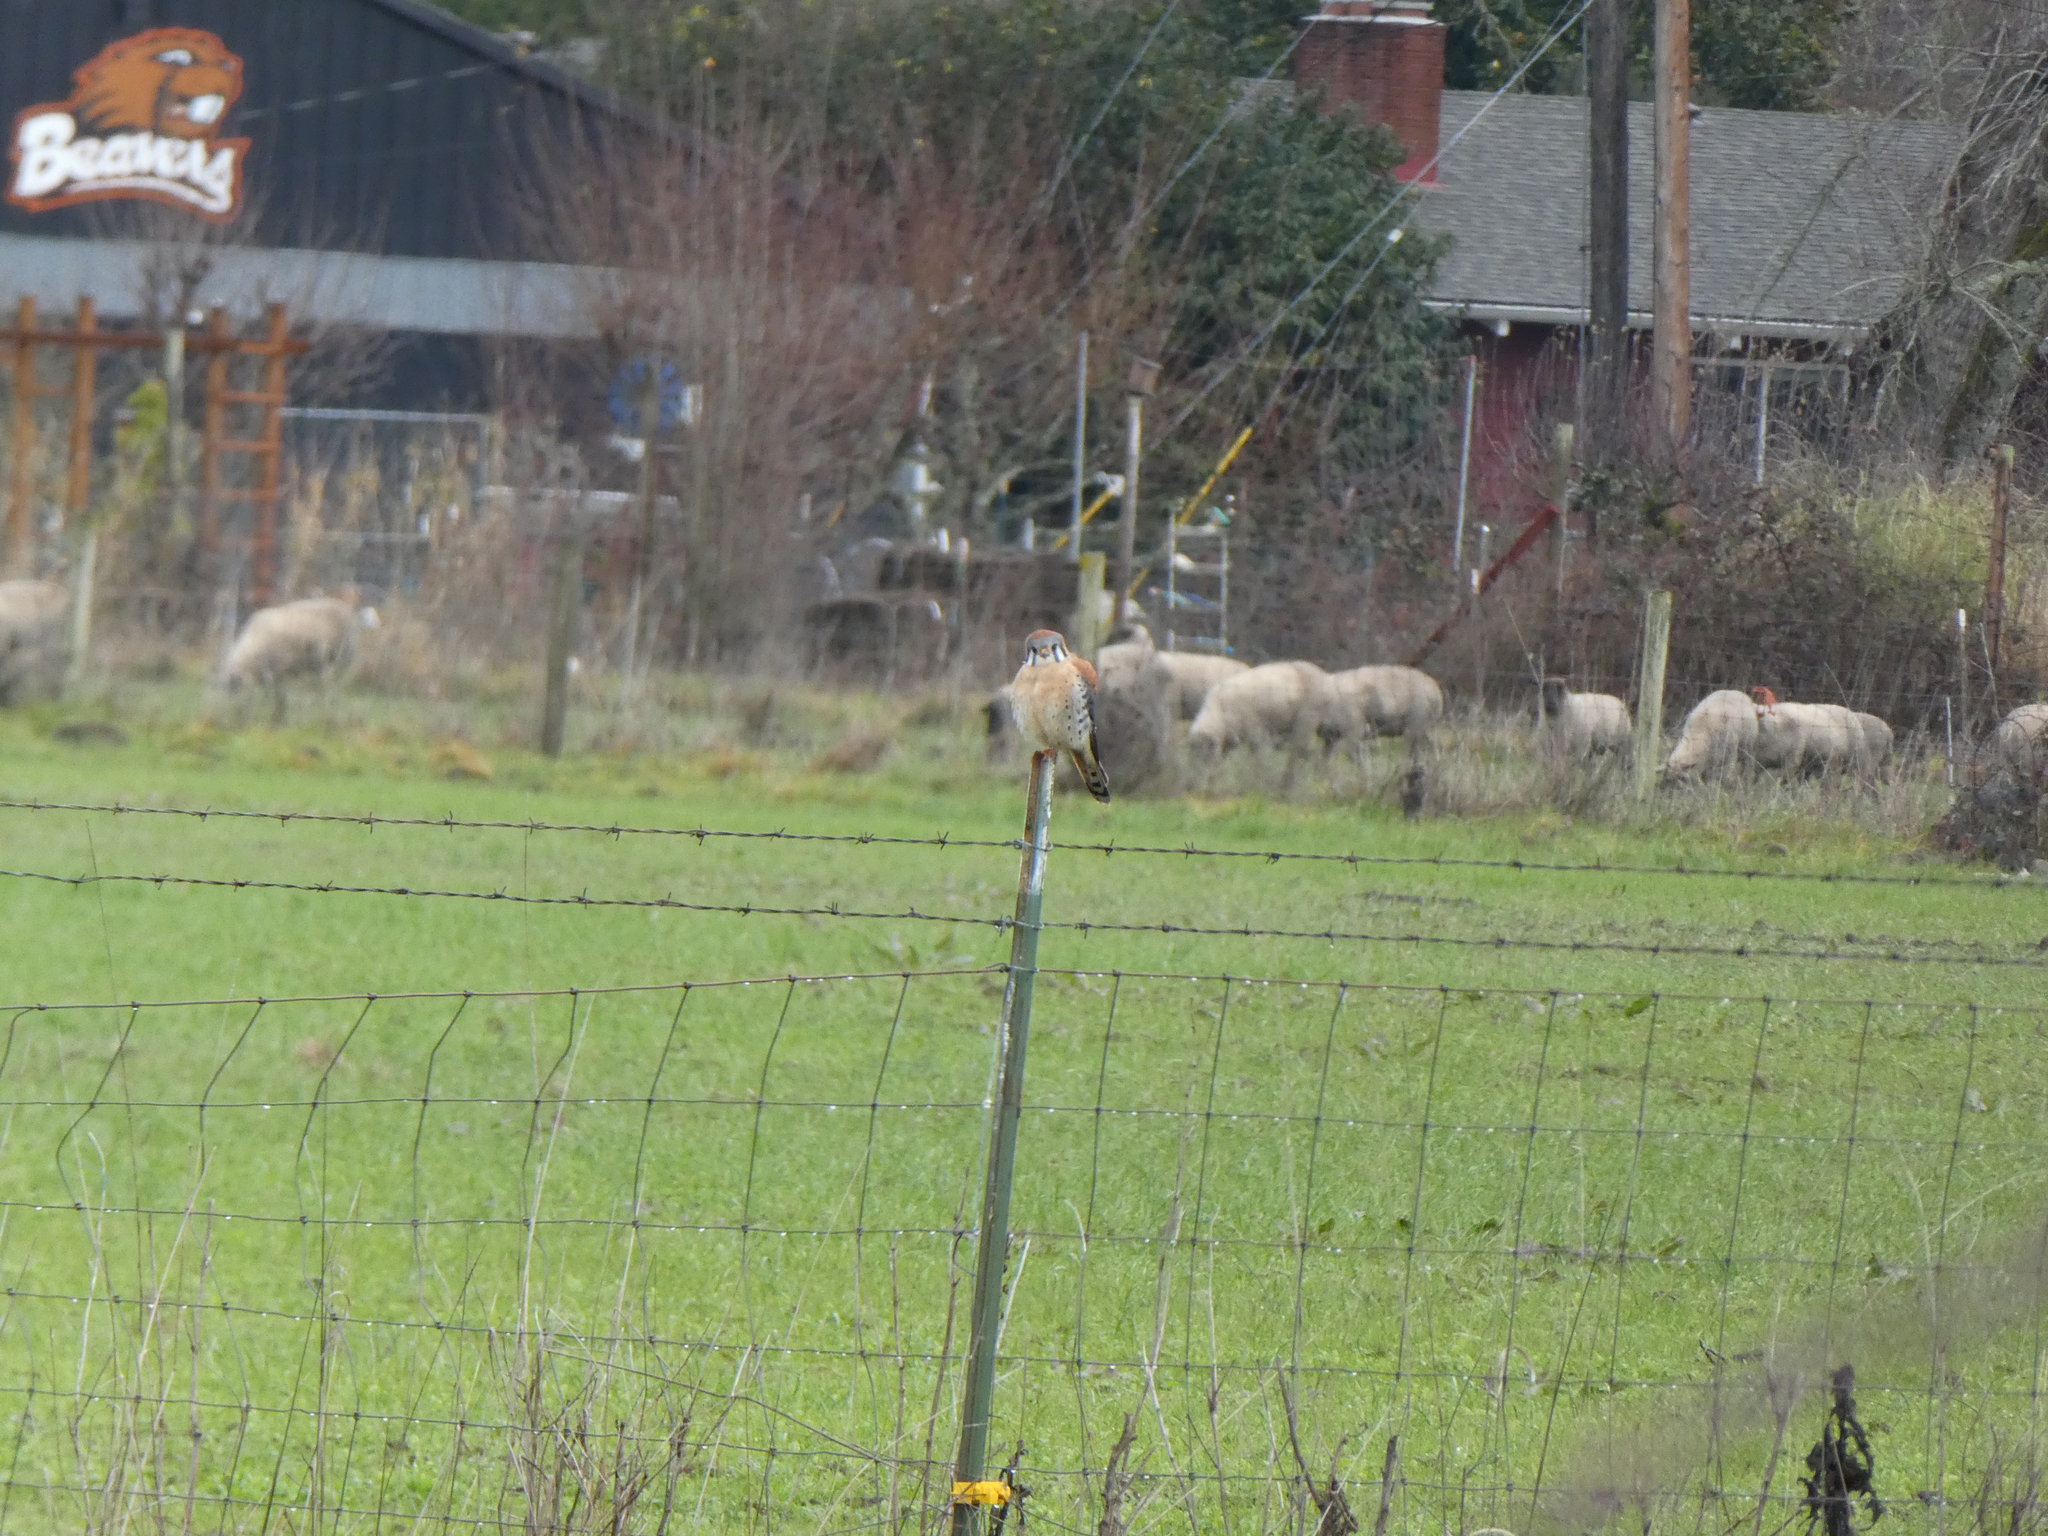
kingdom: Animalia
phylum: Chordata
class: Aves
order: Falconiformes
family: Falconidae
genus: Falco
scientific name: Falco sparverius
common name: American kestrel
